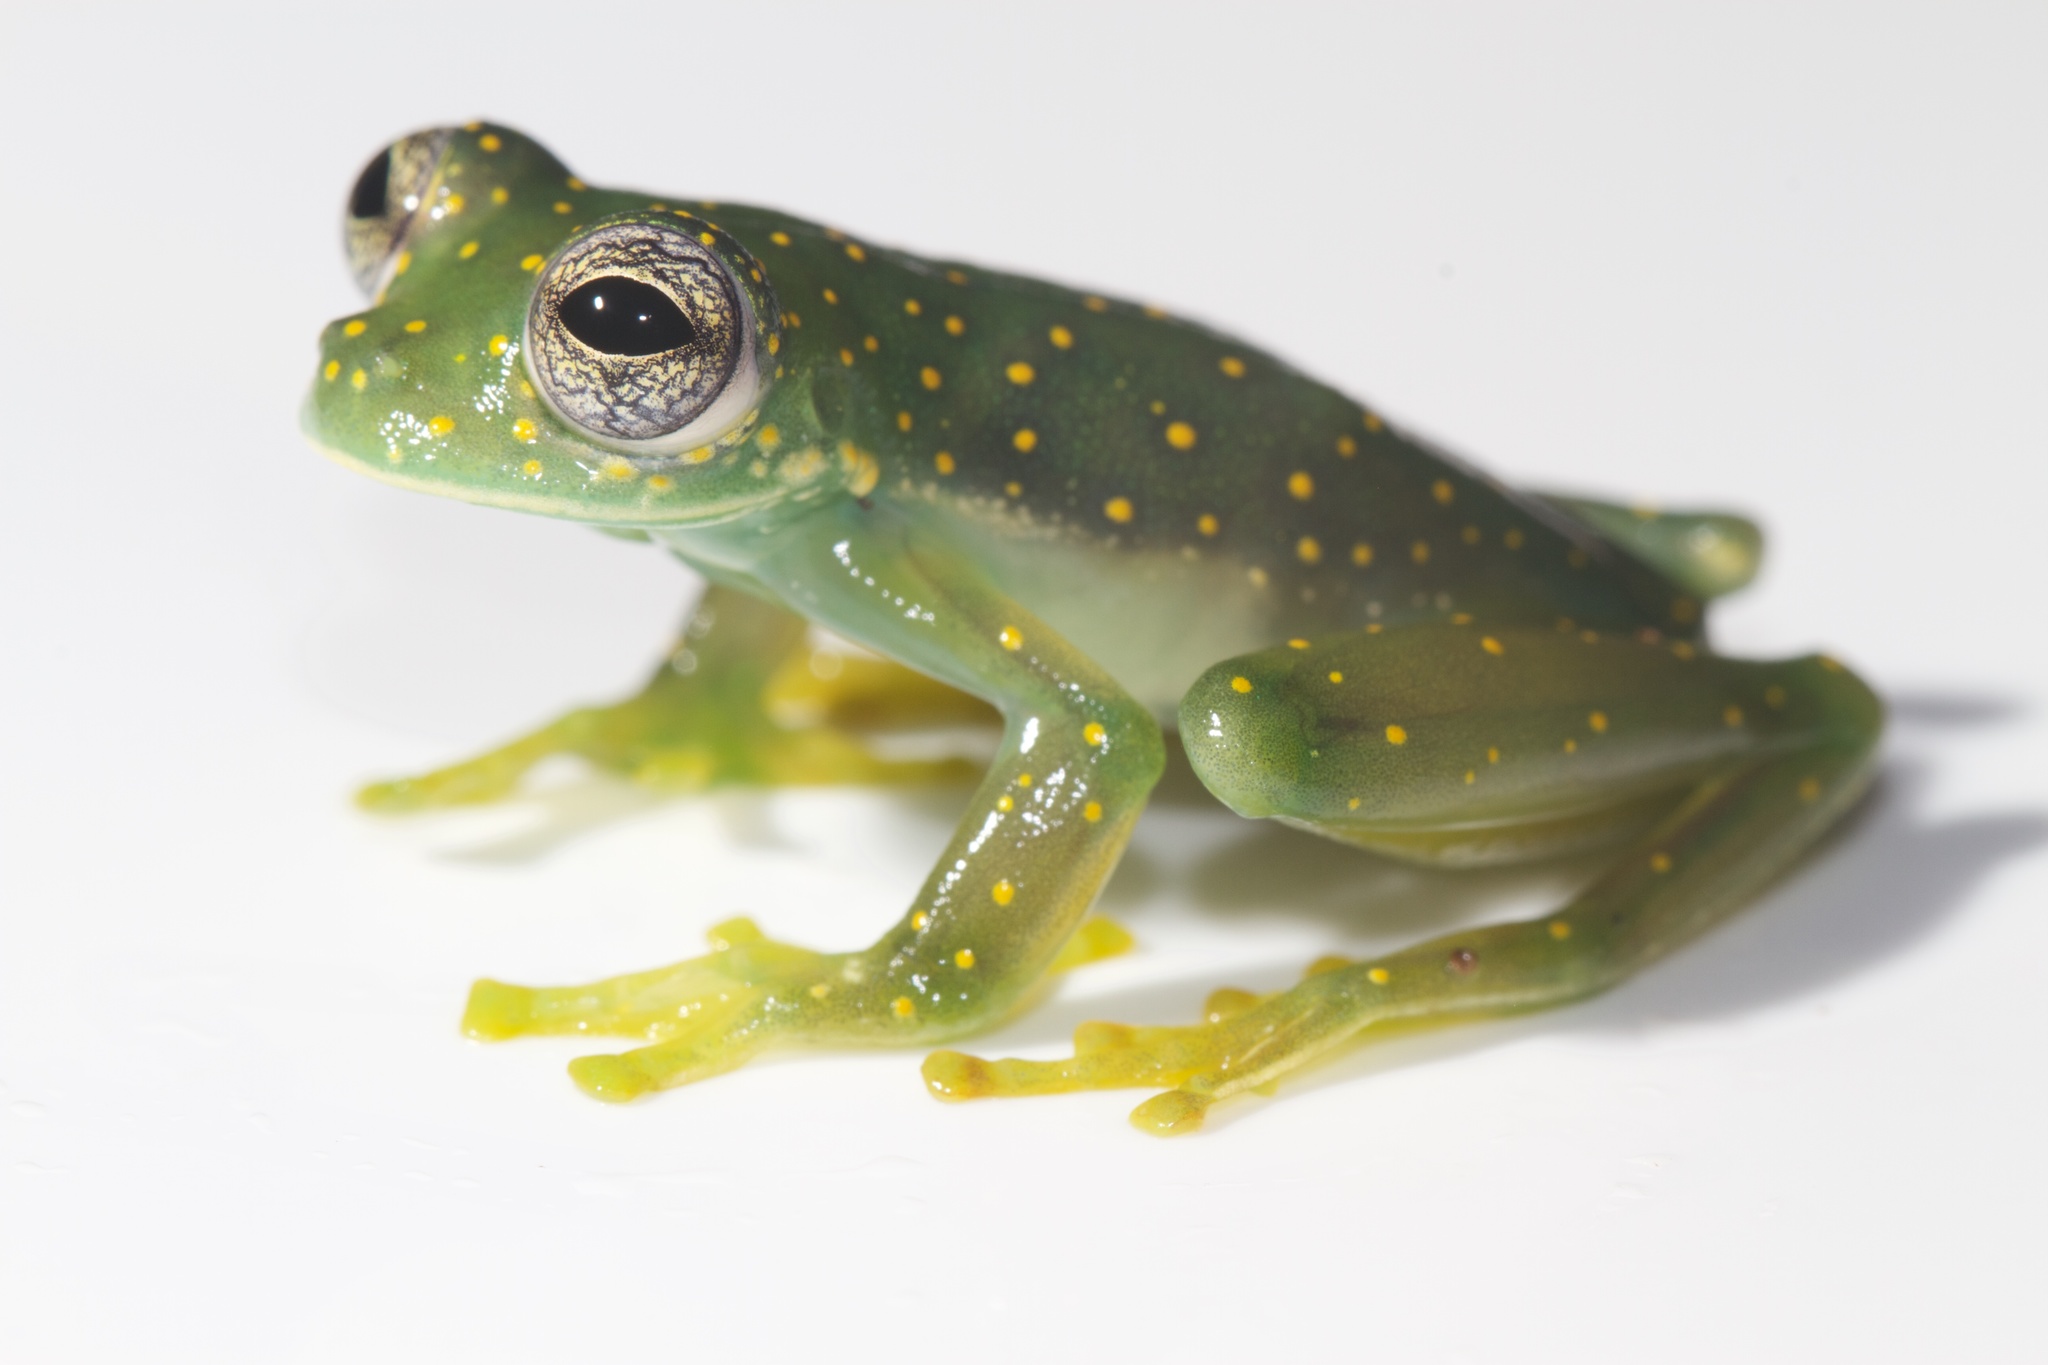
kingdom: Animalia
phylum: Chordata
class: Amphibia
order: Anura
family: Centrolenidae
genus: Sachatamia
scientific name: Sachatamia albomaculata
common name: Rana de cristal de cascada
